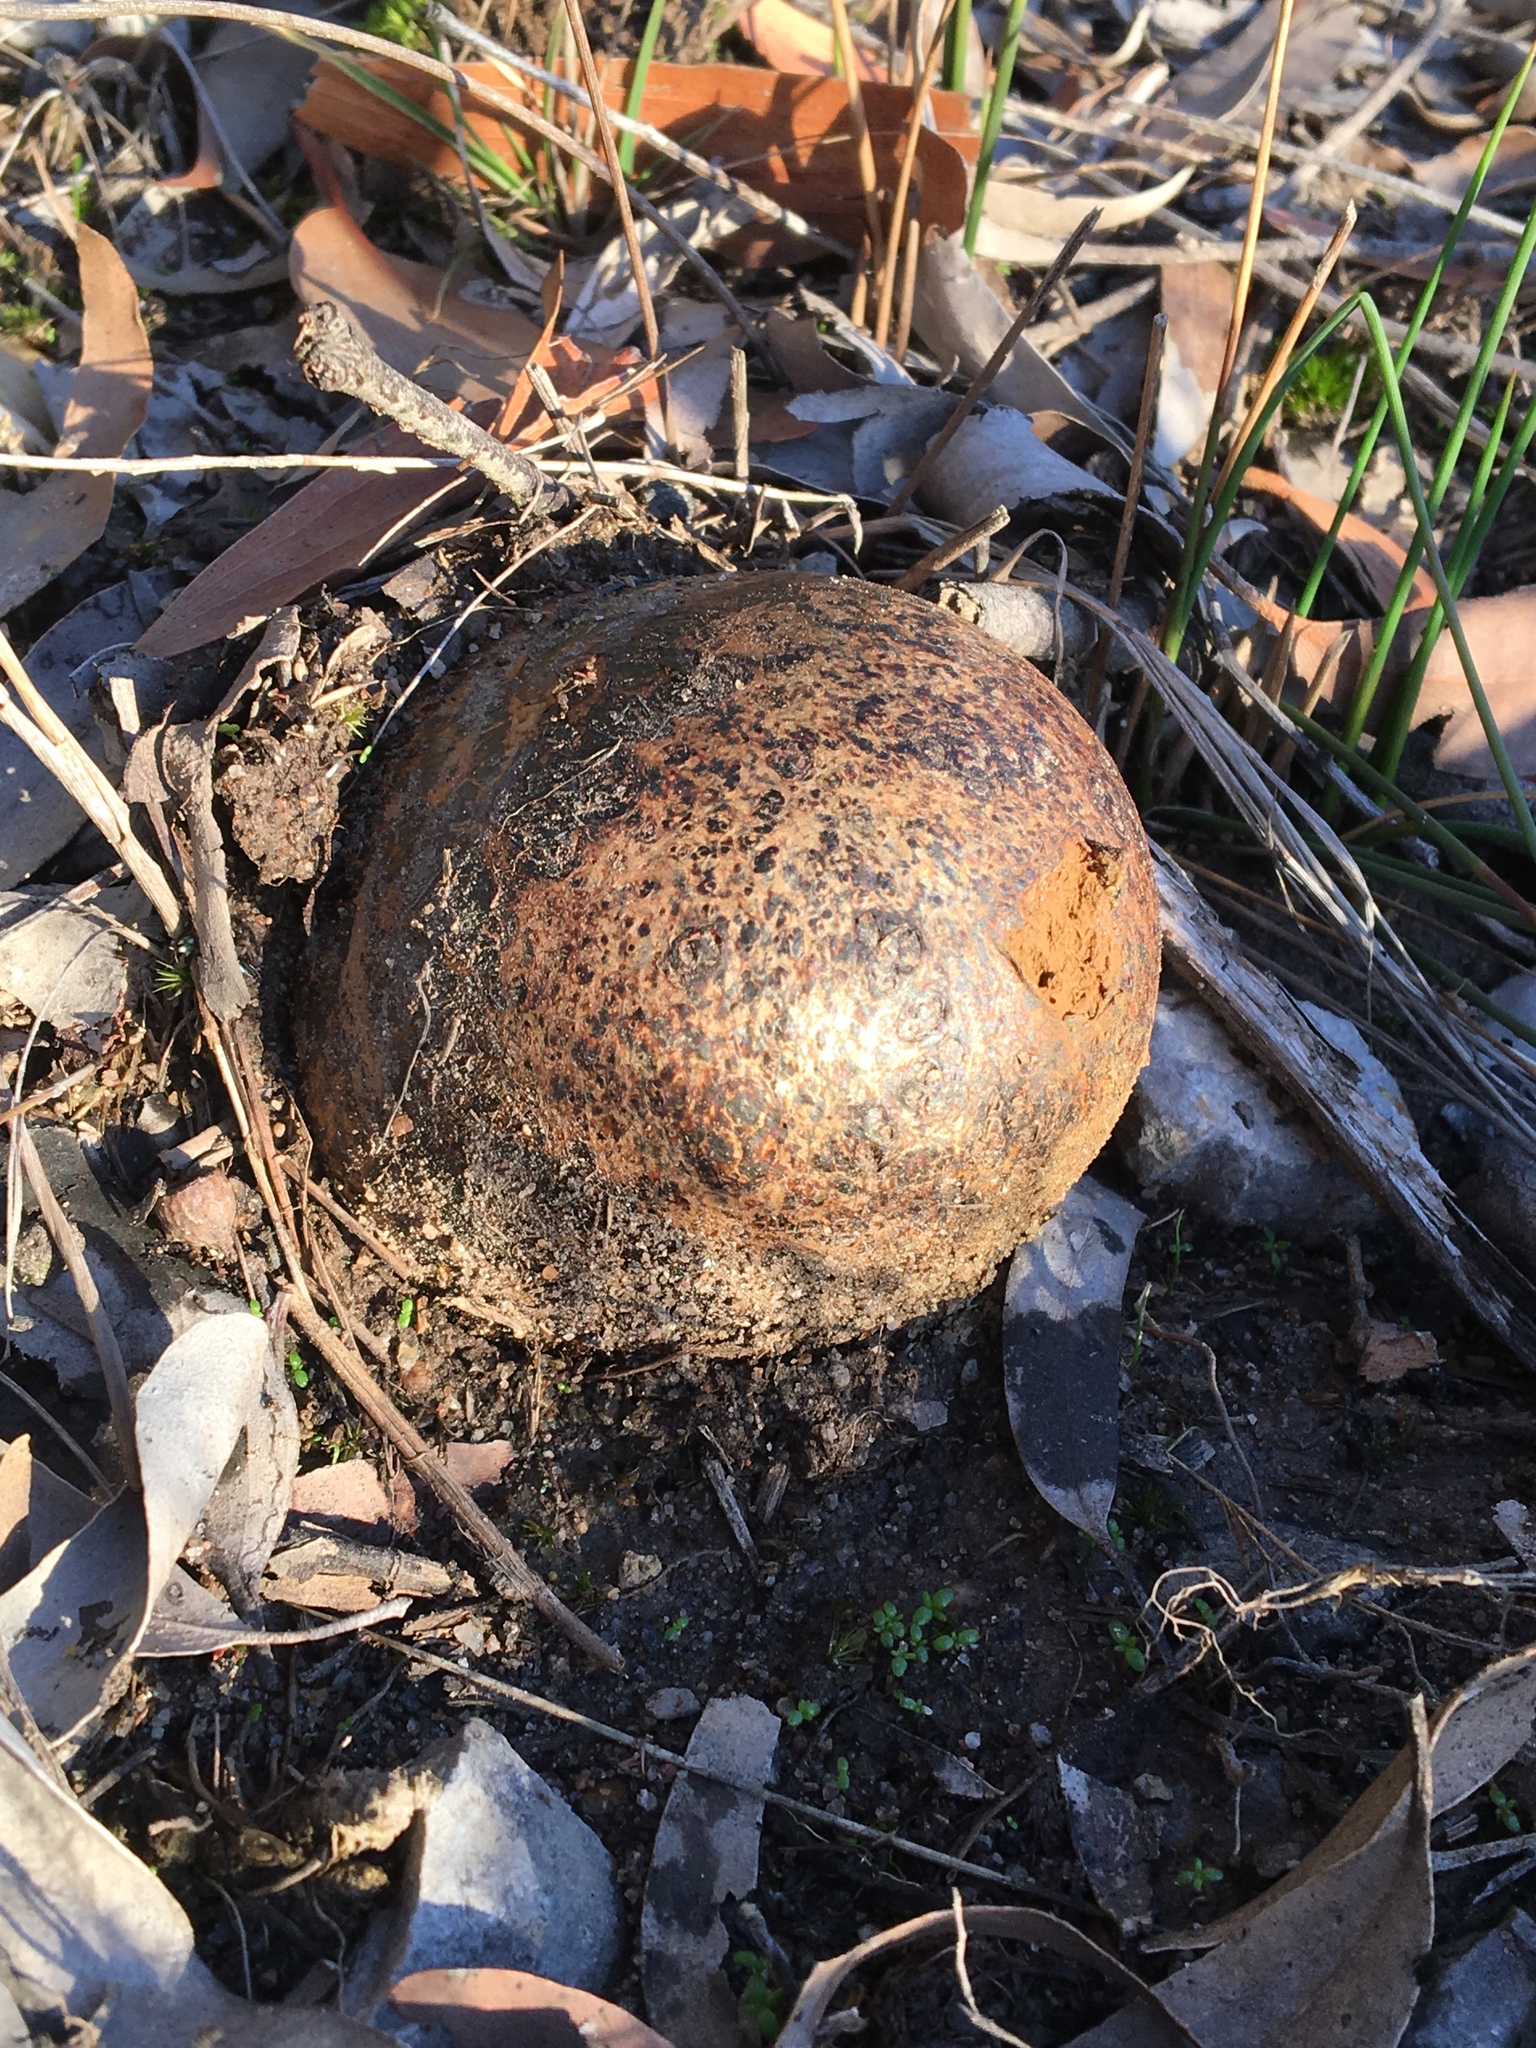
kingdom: Fungi
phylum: Basidiomycota
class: Agaricomycetes
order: Boletales
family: Sclerodermataceae
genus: Pisolithus
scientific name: Pisolithus arhizus
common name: Dyeball
